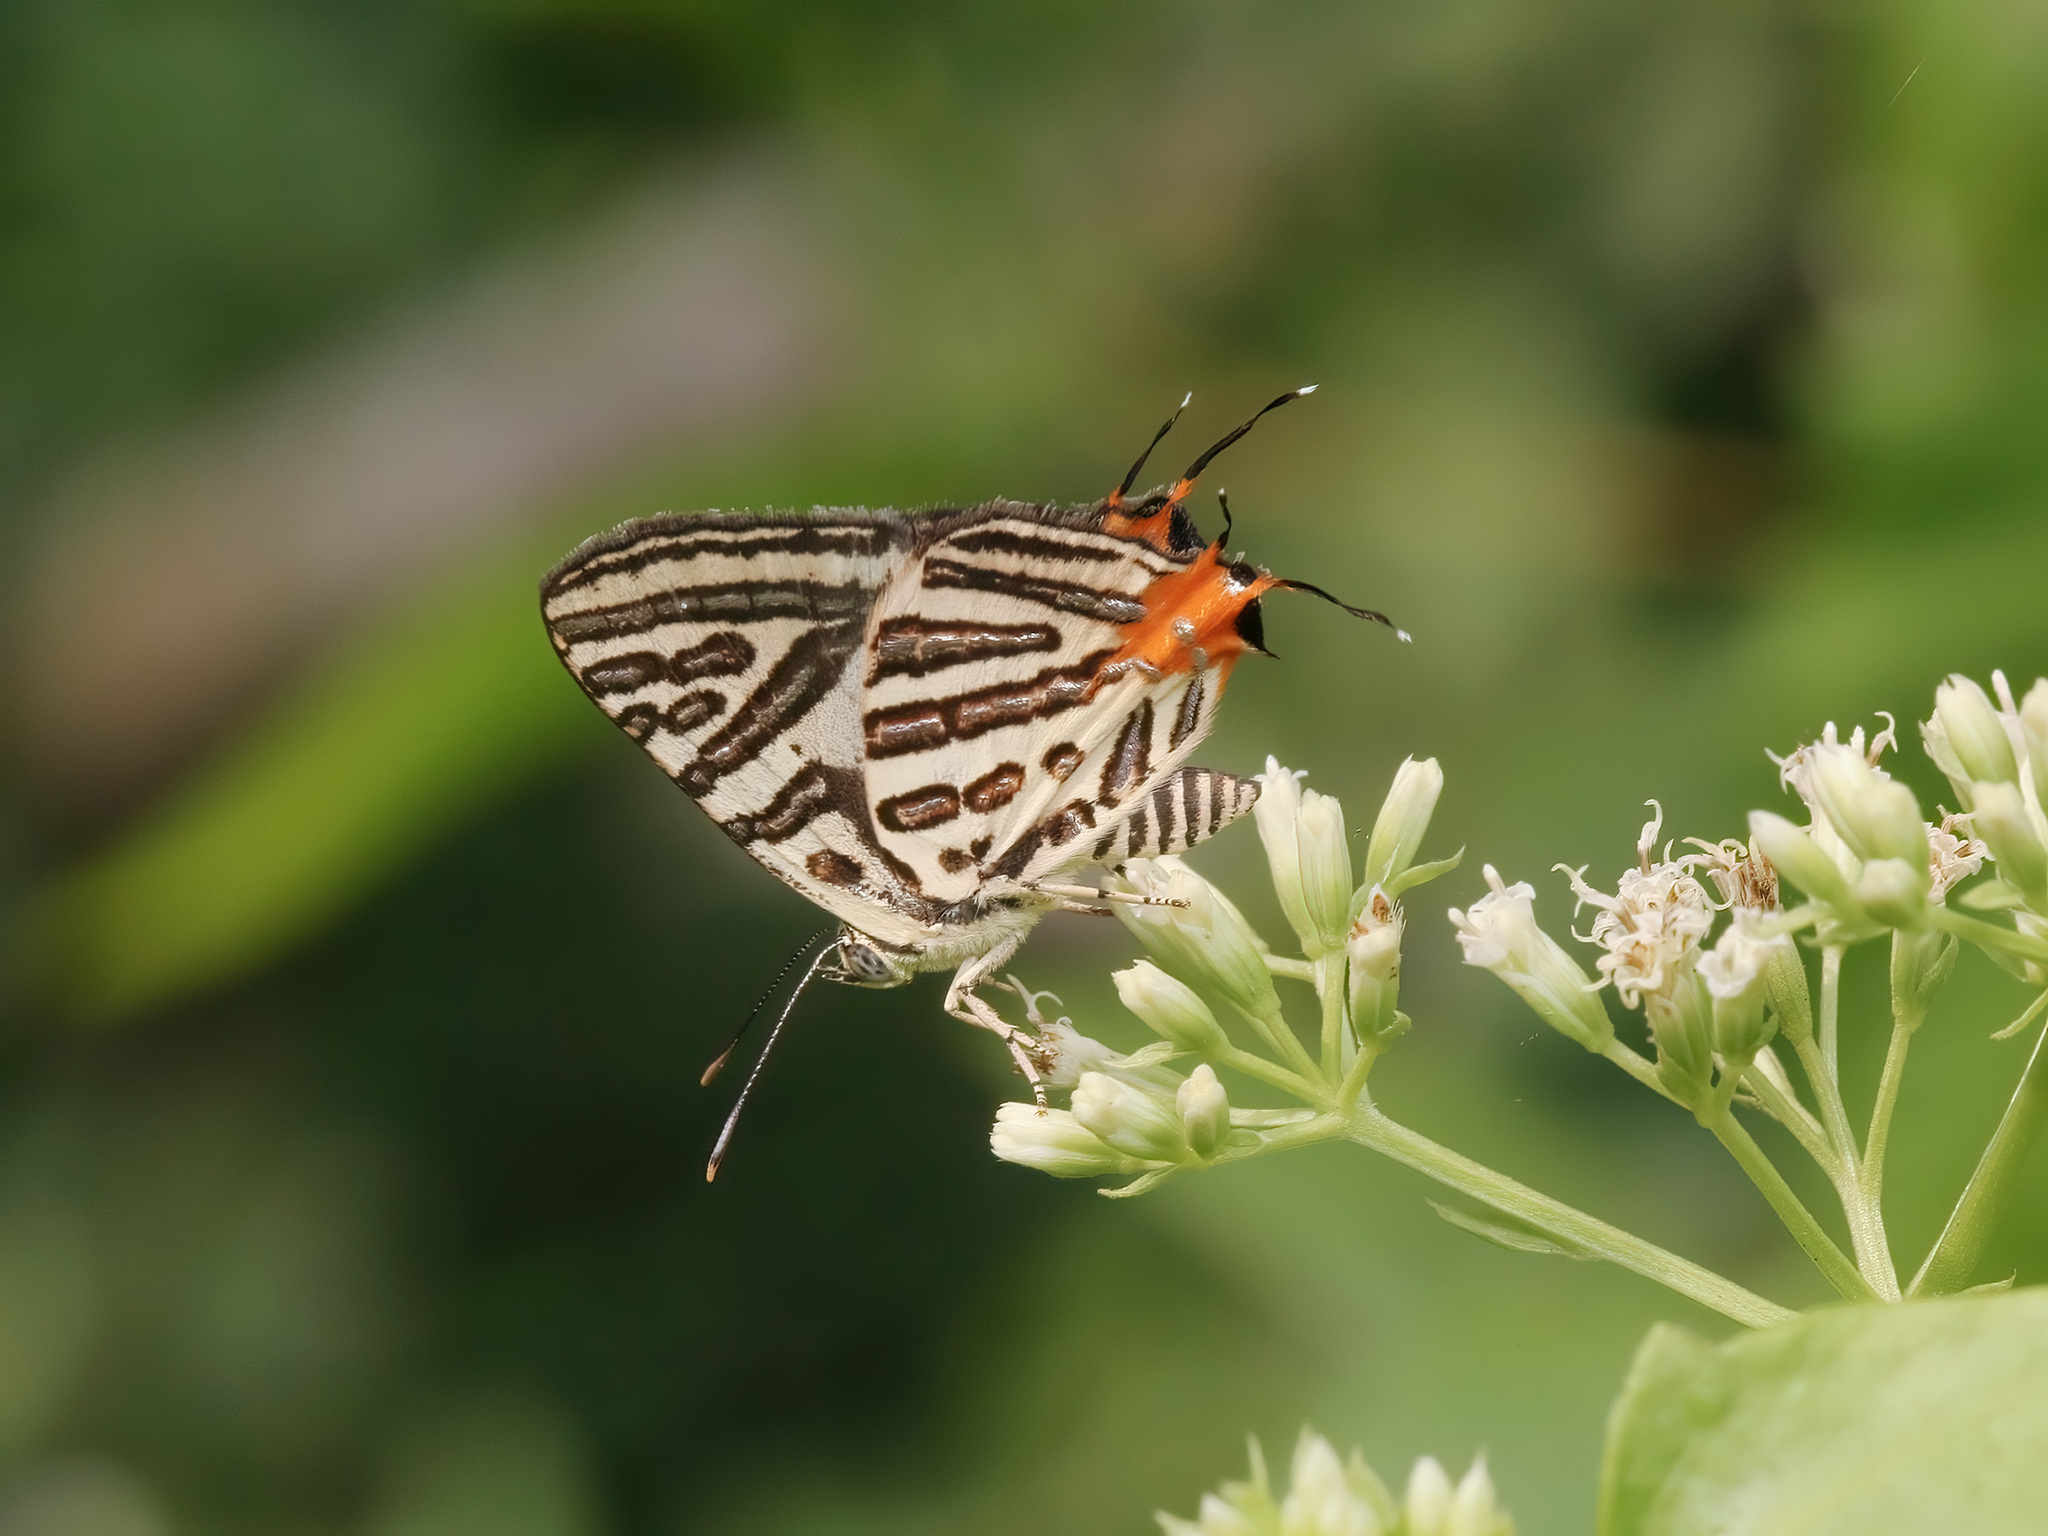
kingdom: Animalia
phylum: Arthropoda
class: Insecta
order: Lepidoptera
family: Lycaenidae
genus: Cigaritis
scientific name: Cigaritis syama
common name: Club silverline
